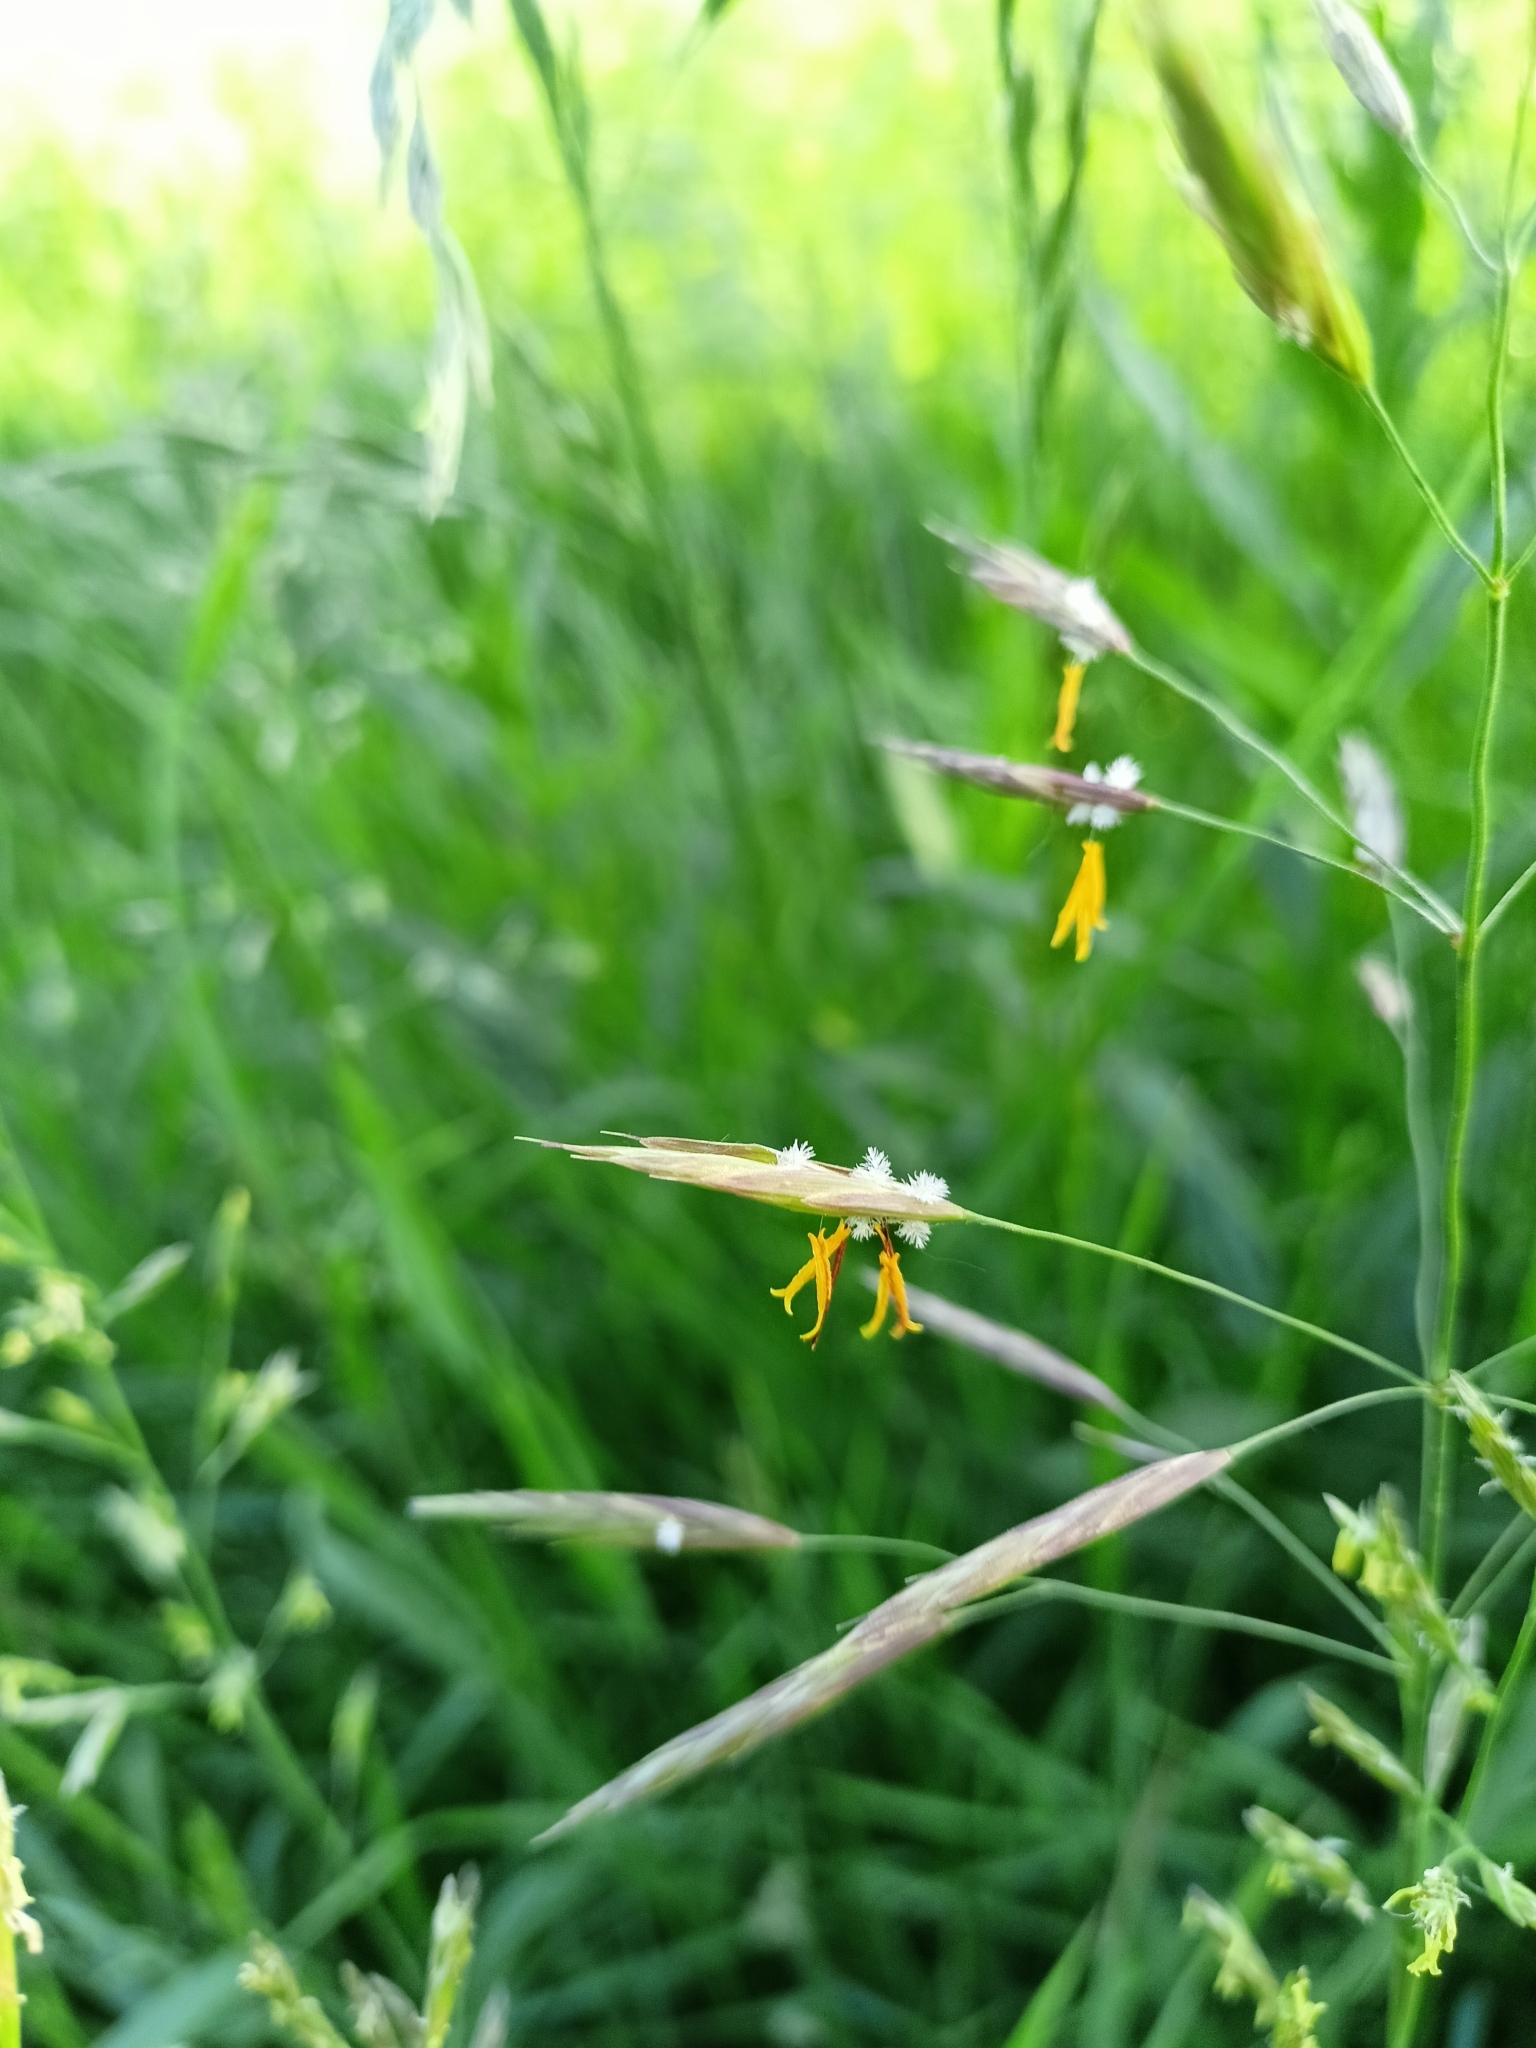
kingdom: Plantae
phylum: Tracheophyta
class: Liliopsida
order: Poales
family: Poaceae
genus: Bromus
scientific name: Bromus inermis
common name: Smooth brome
